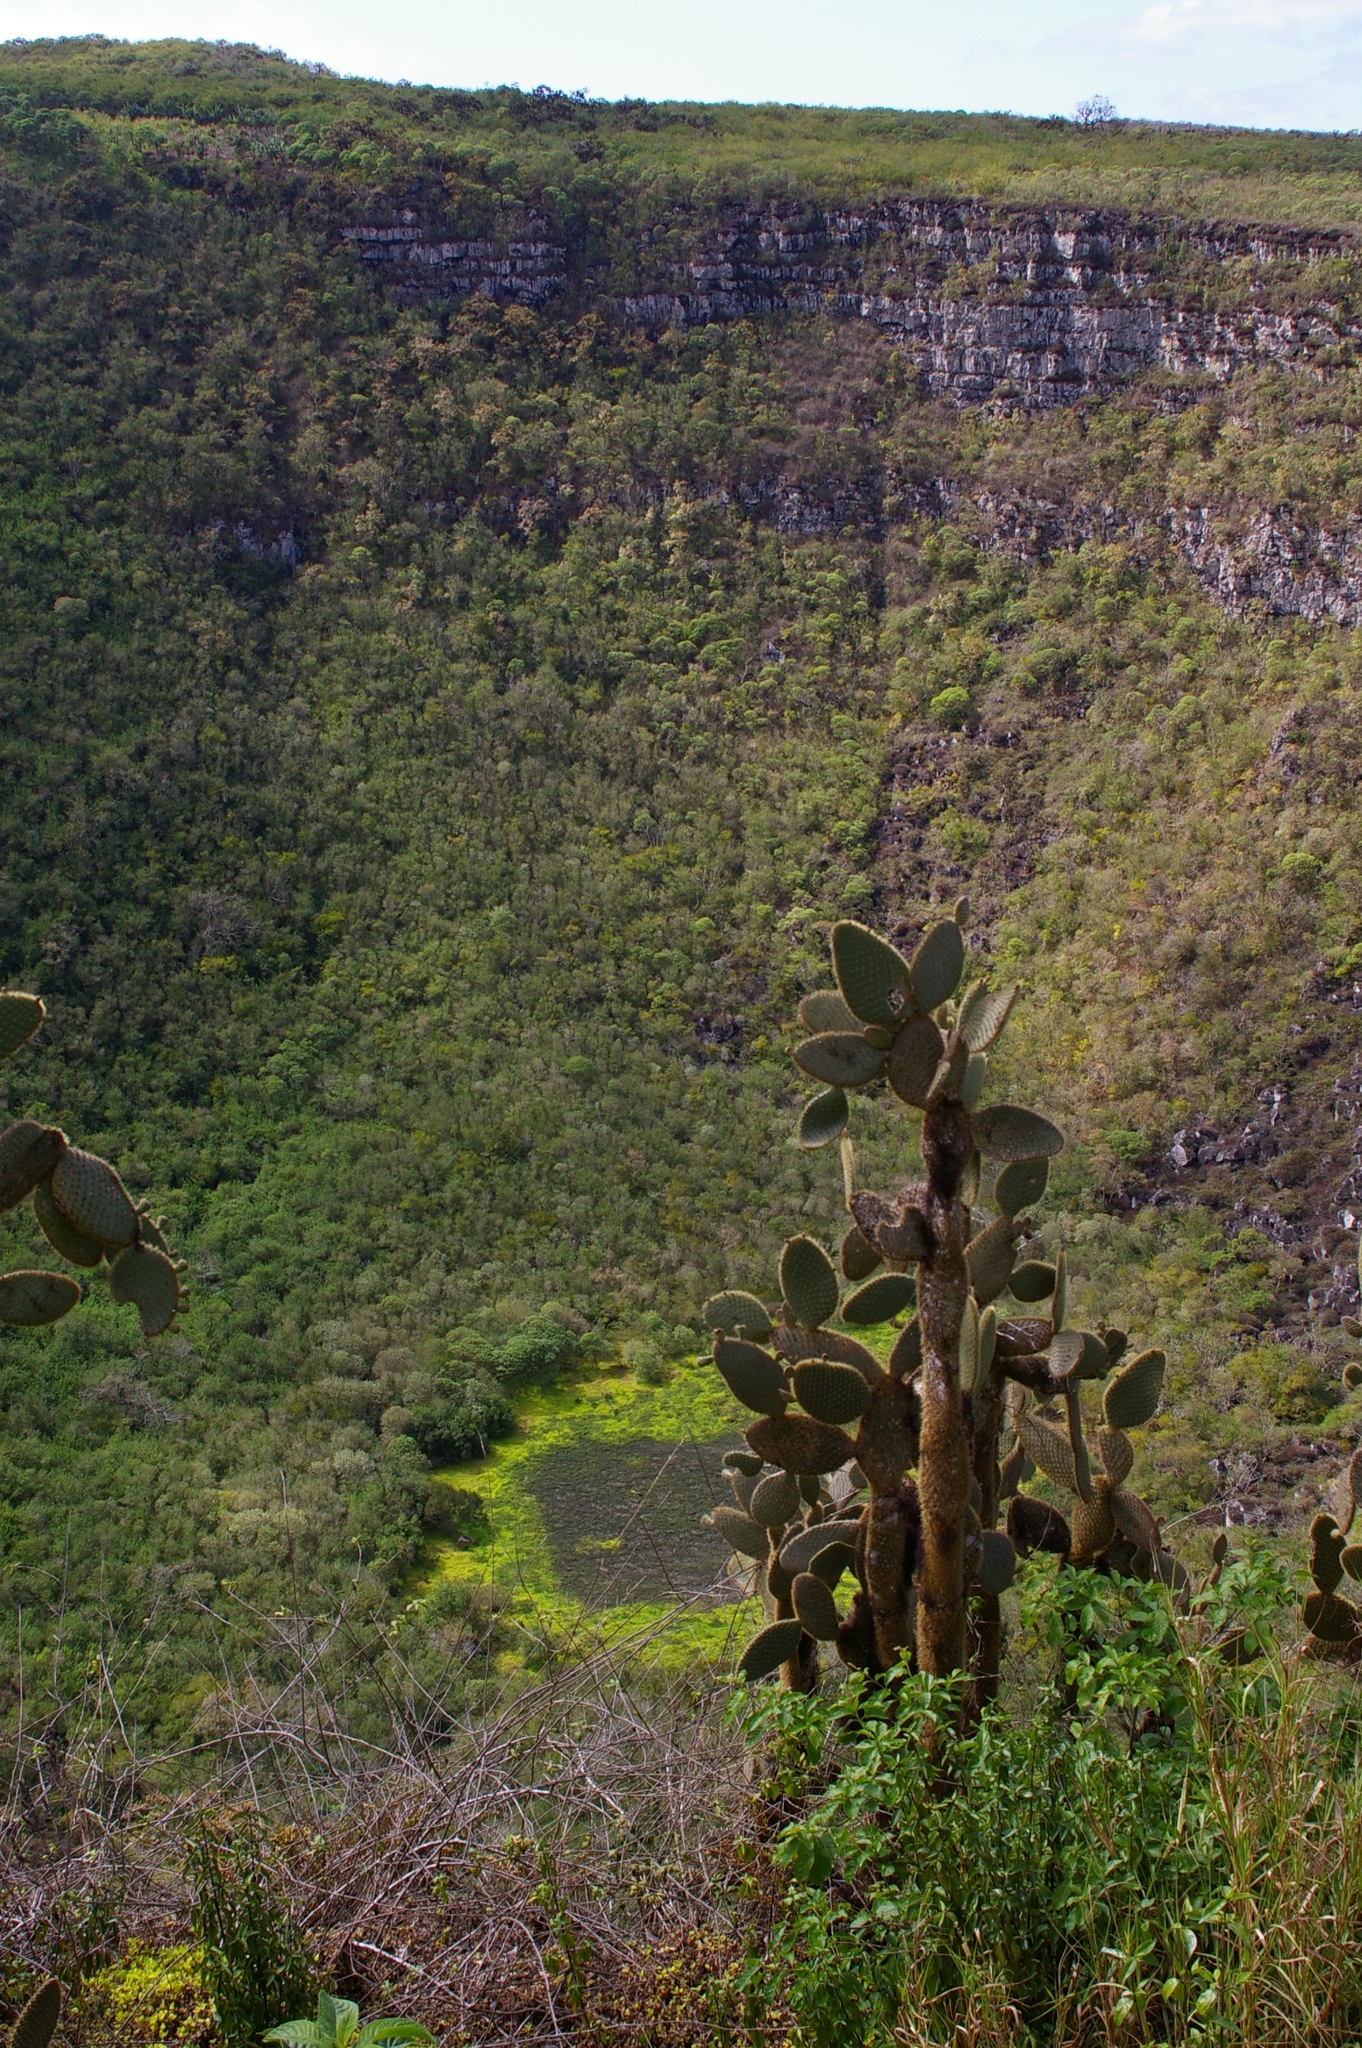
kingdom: Plantae
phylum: Tracheophyta
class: Magnoliopsida
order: Caryophyllales
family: Cactaceae
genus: Opuntia
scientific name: Opuntia galapageia
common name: Galápagos prickly pear
